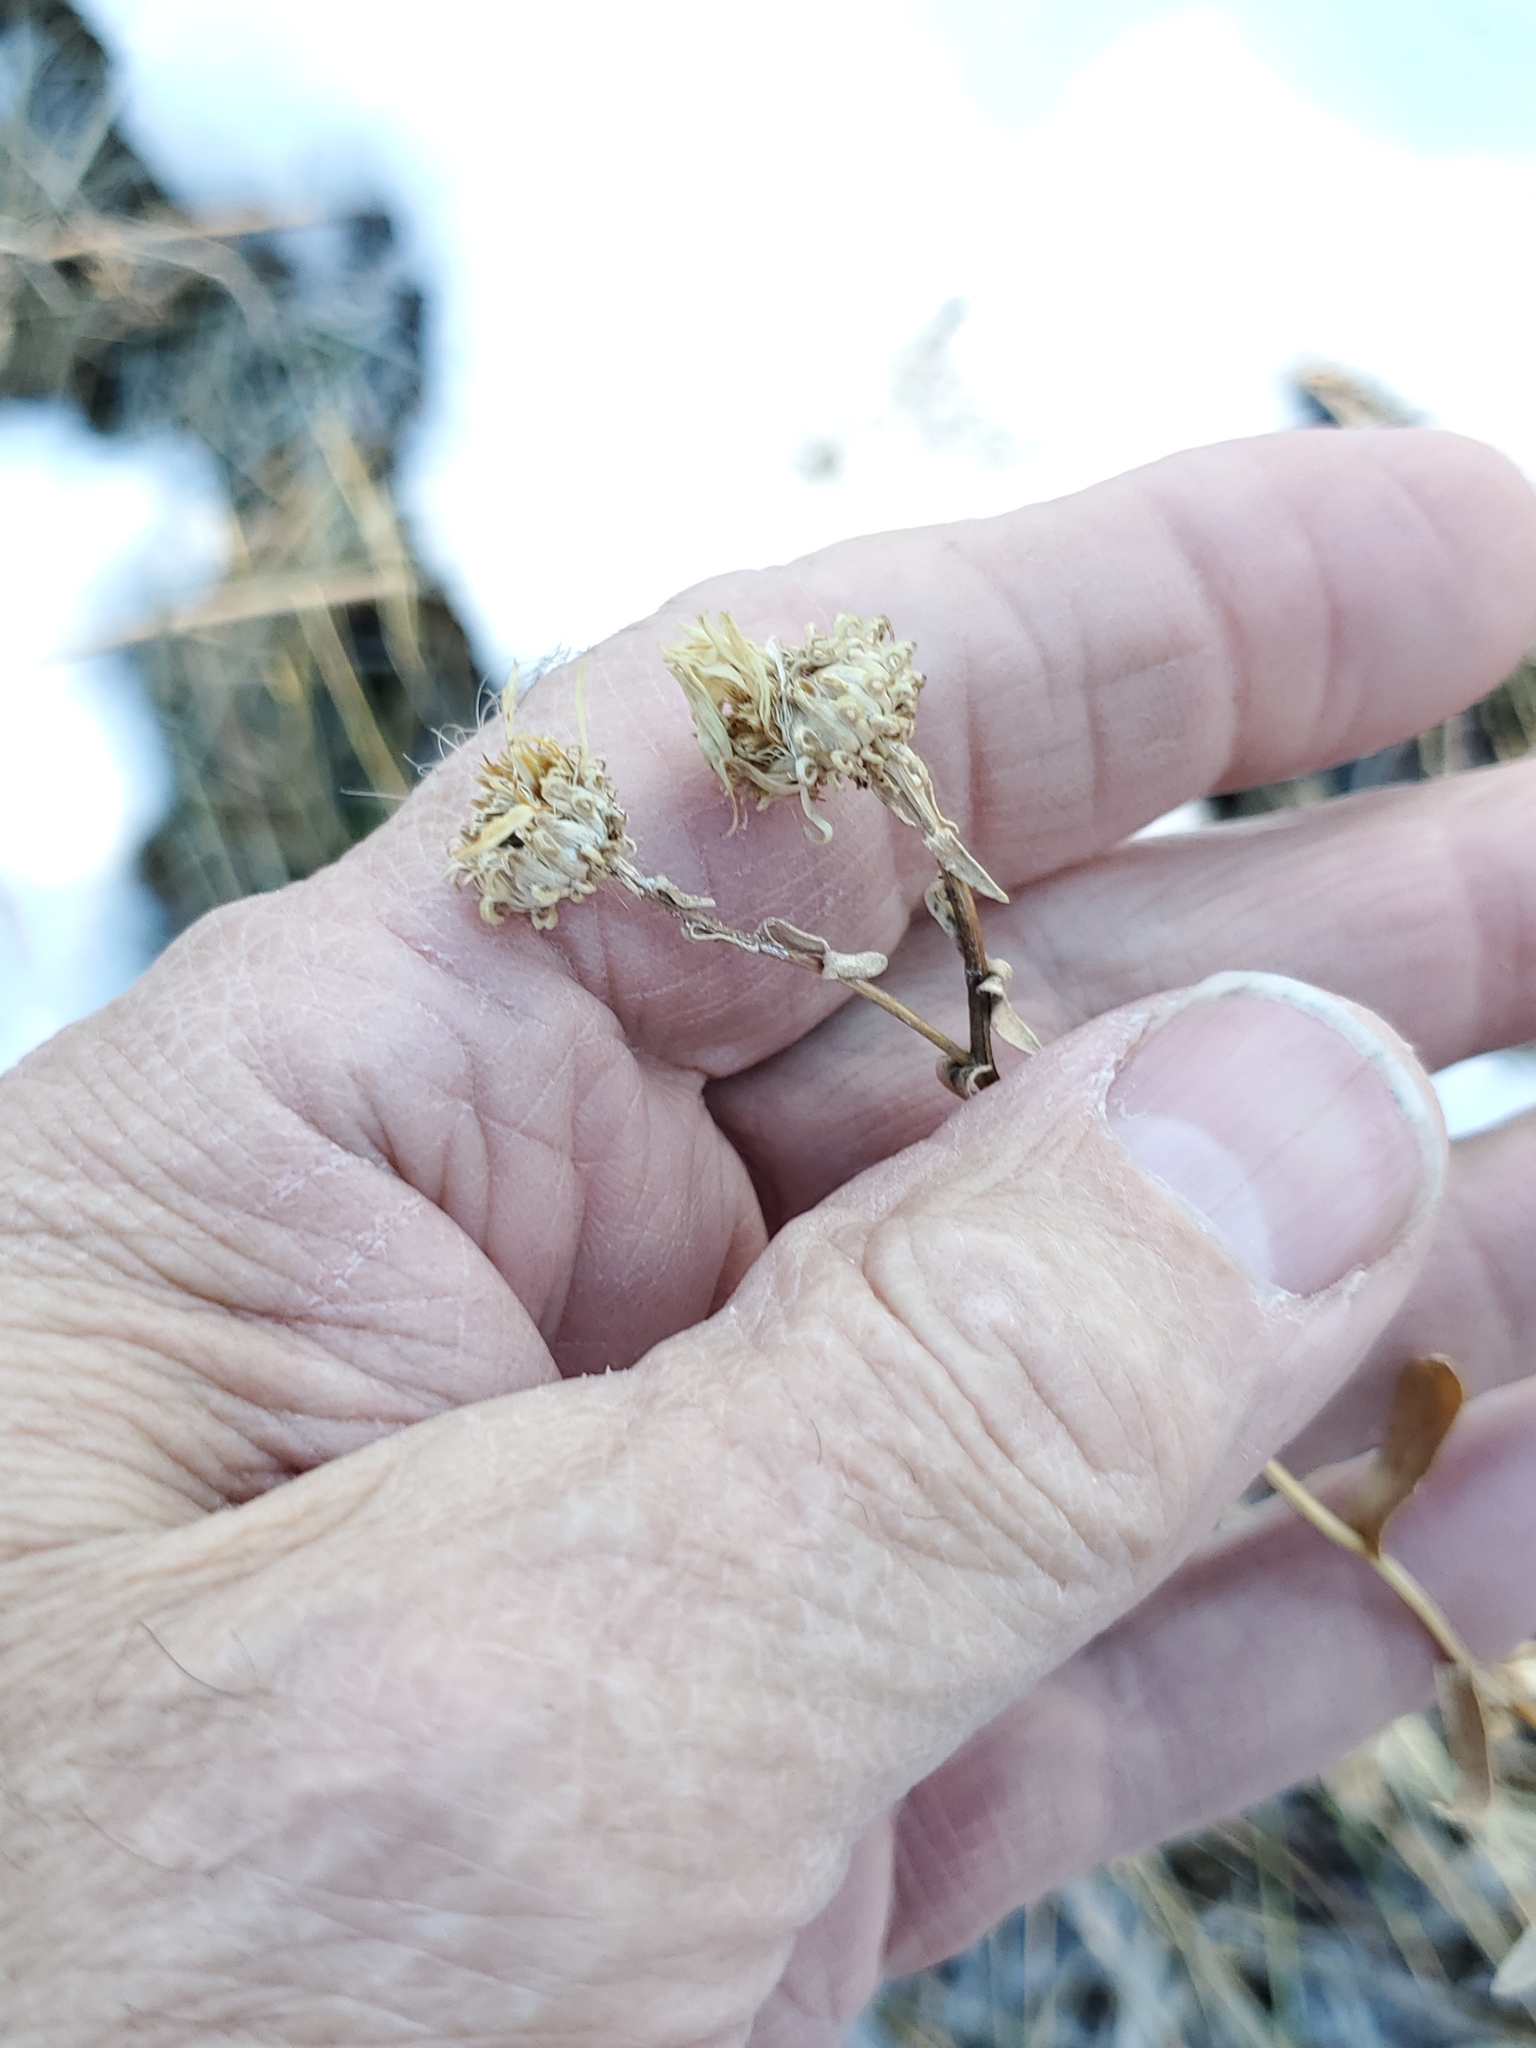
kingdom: Plantae
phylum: Tracheophyta
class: Magnoliopsida
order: Asterales
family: Asteraceae
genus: Grindelia
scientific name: Grindelia squarrosa
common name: Curly-cup gumweed
